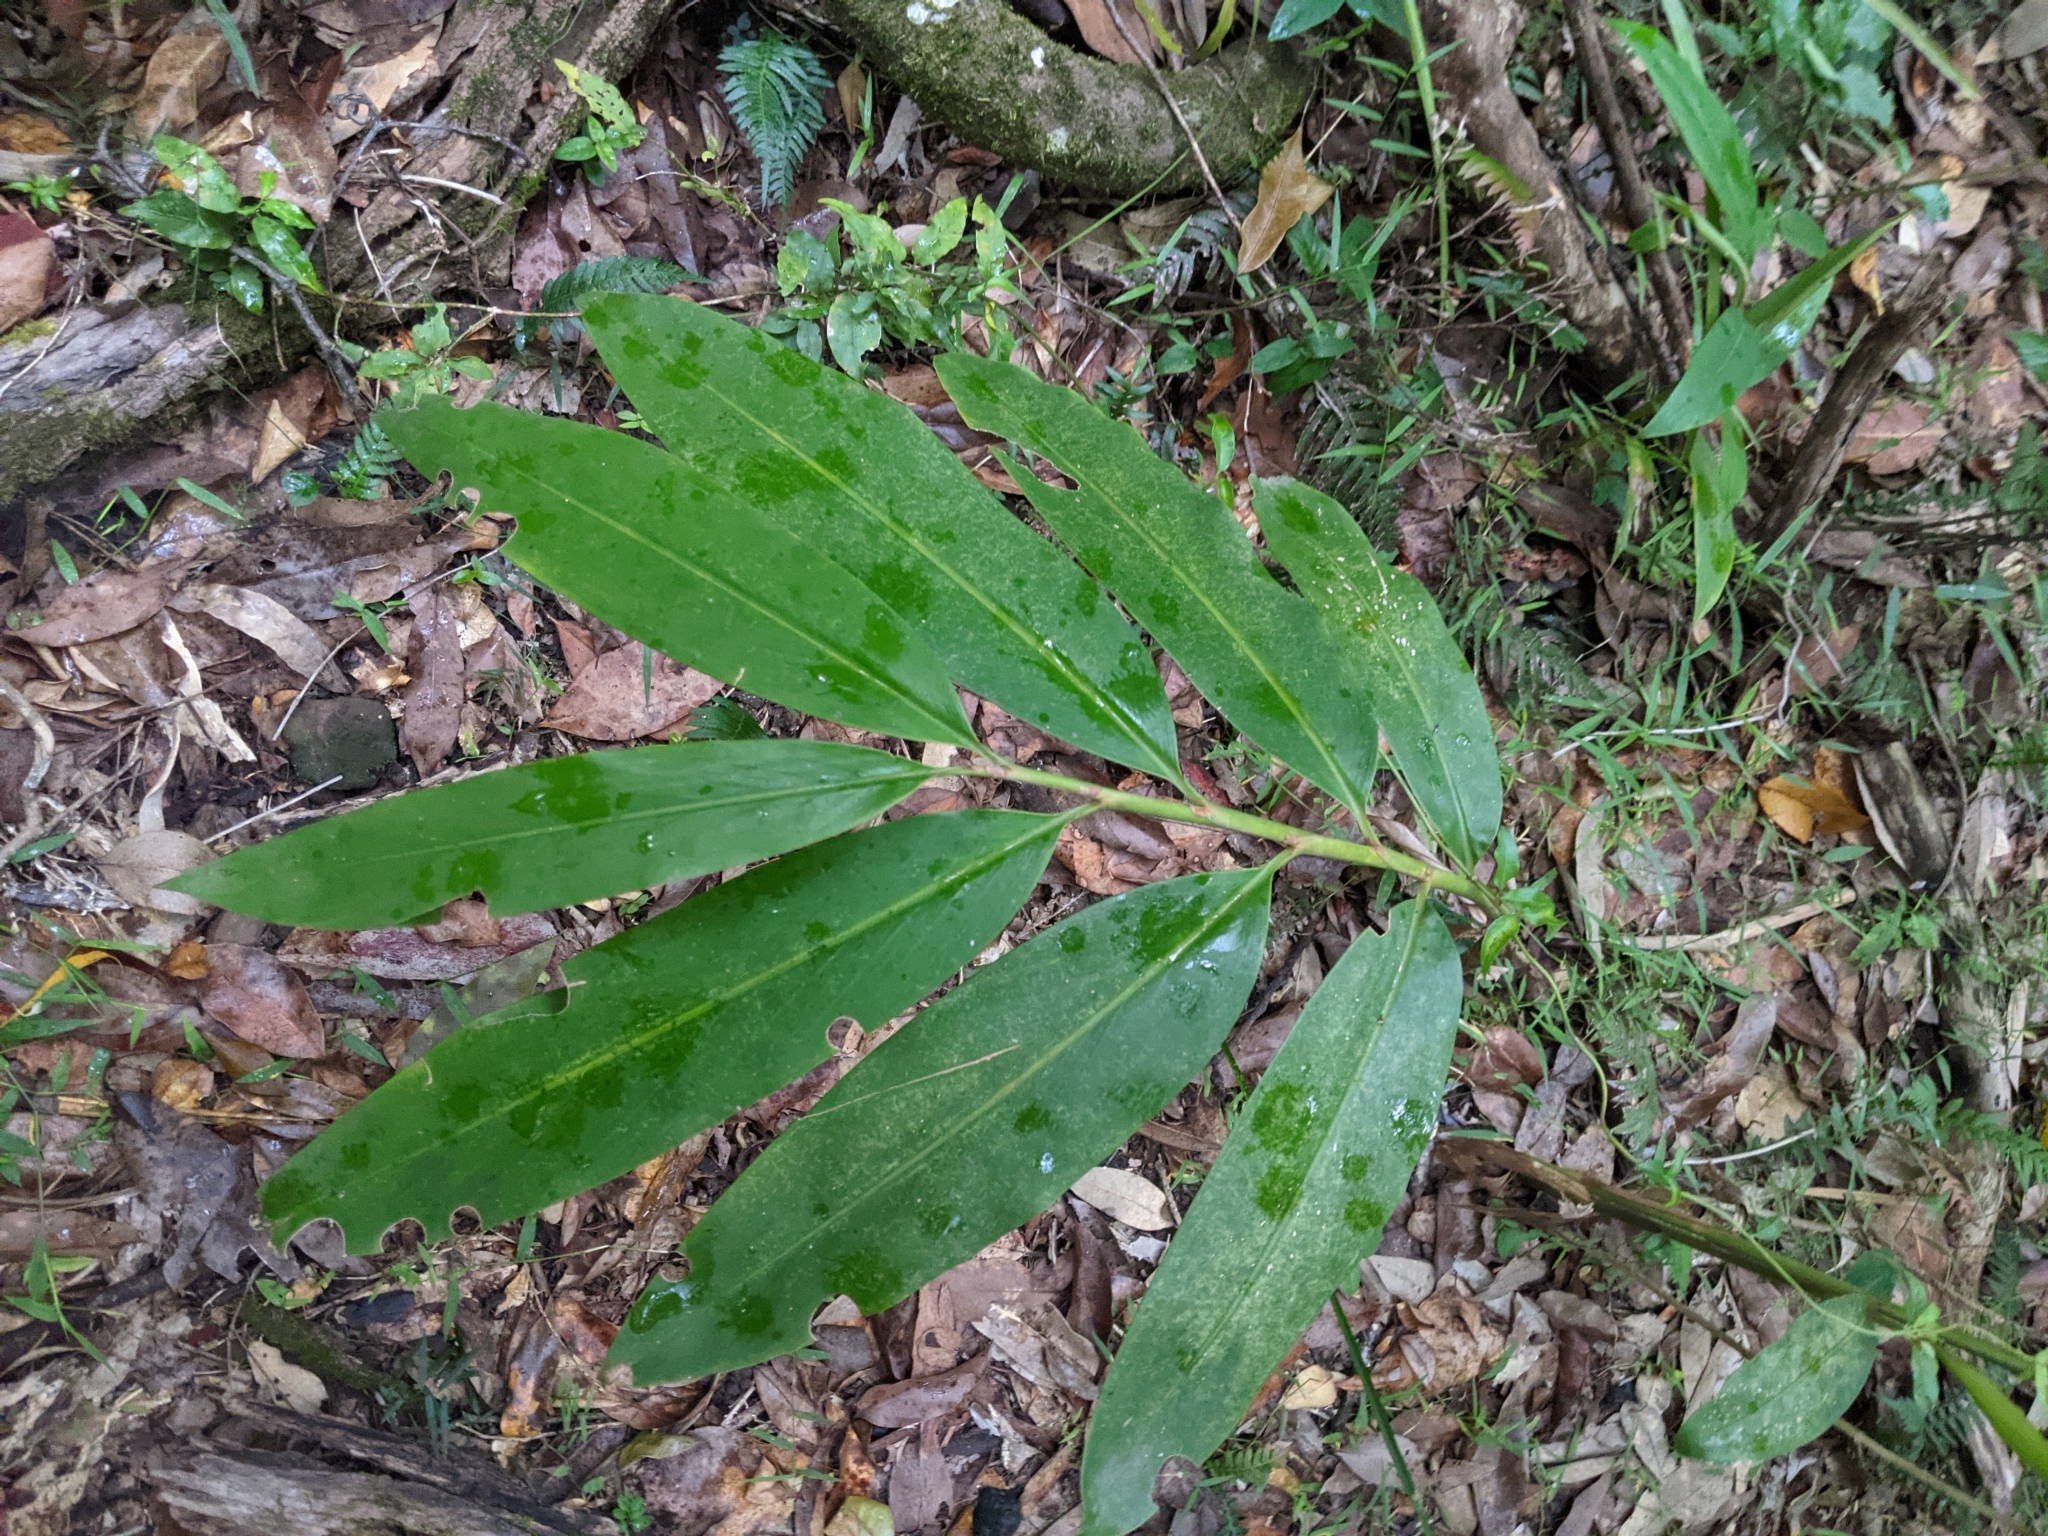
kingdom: Plantae
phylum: Tracheophyta
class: Liliopsida
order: Zingiberales
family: Zingiberaceae
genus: Alpinia
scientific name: Alpinia caerulea
